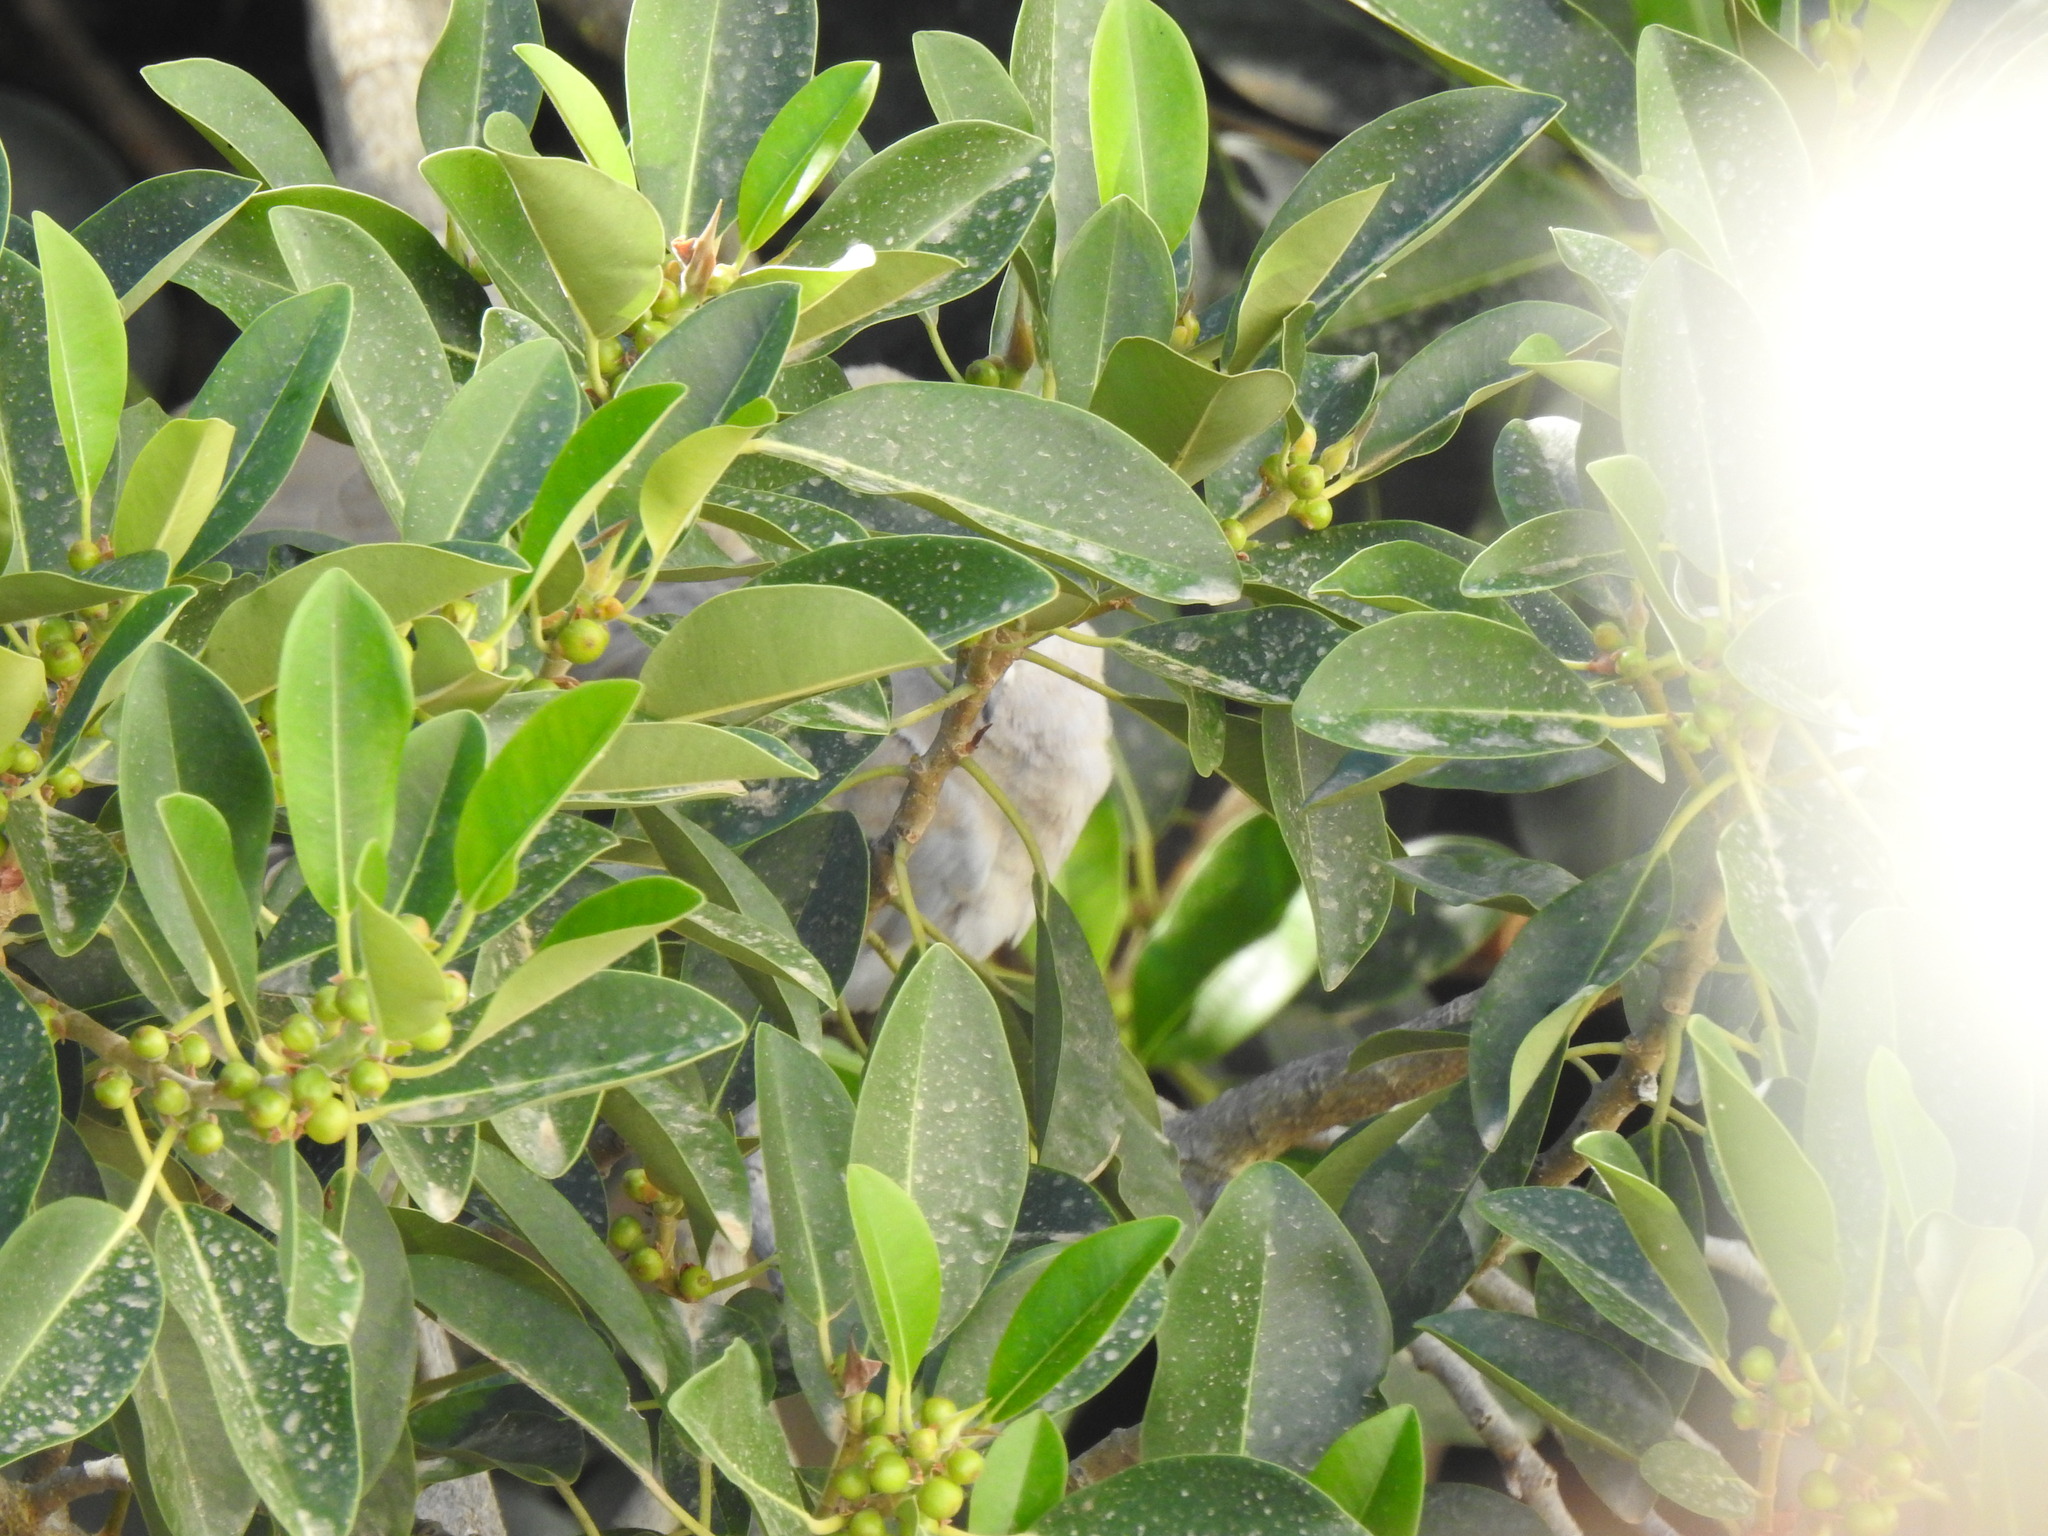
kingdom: Animalia
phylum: Chordata
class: Aves
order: Columbiformes
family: Columbidae
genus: Streptopelia
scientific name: Streptopelia decaocto
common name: Eurasian collared dove
